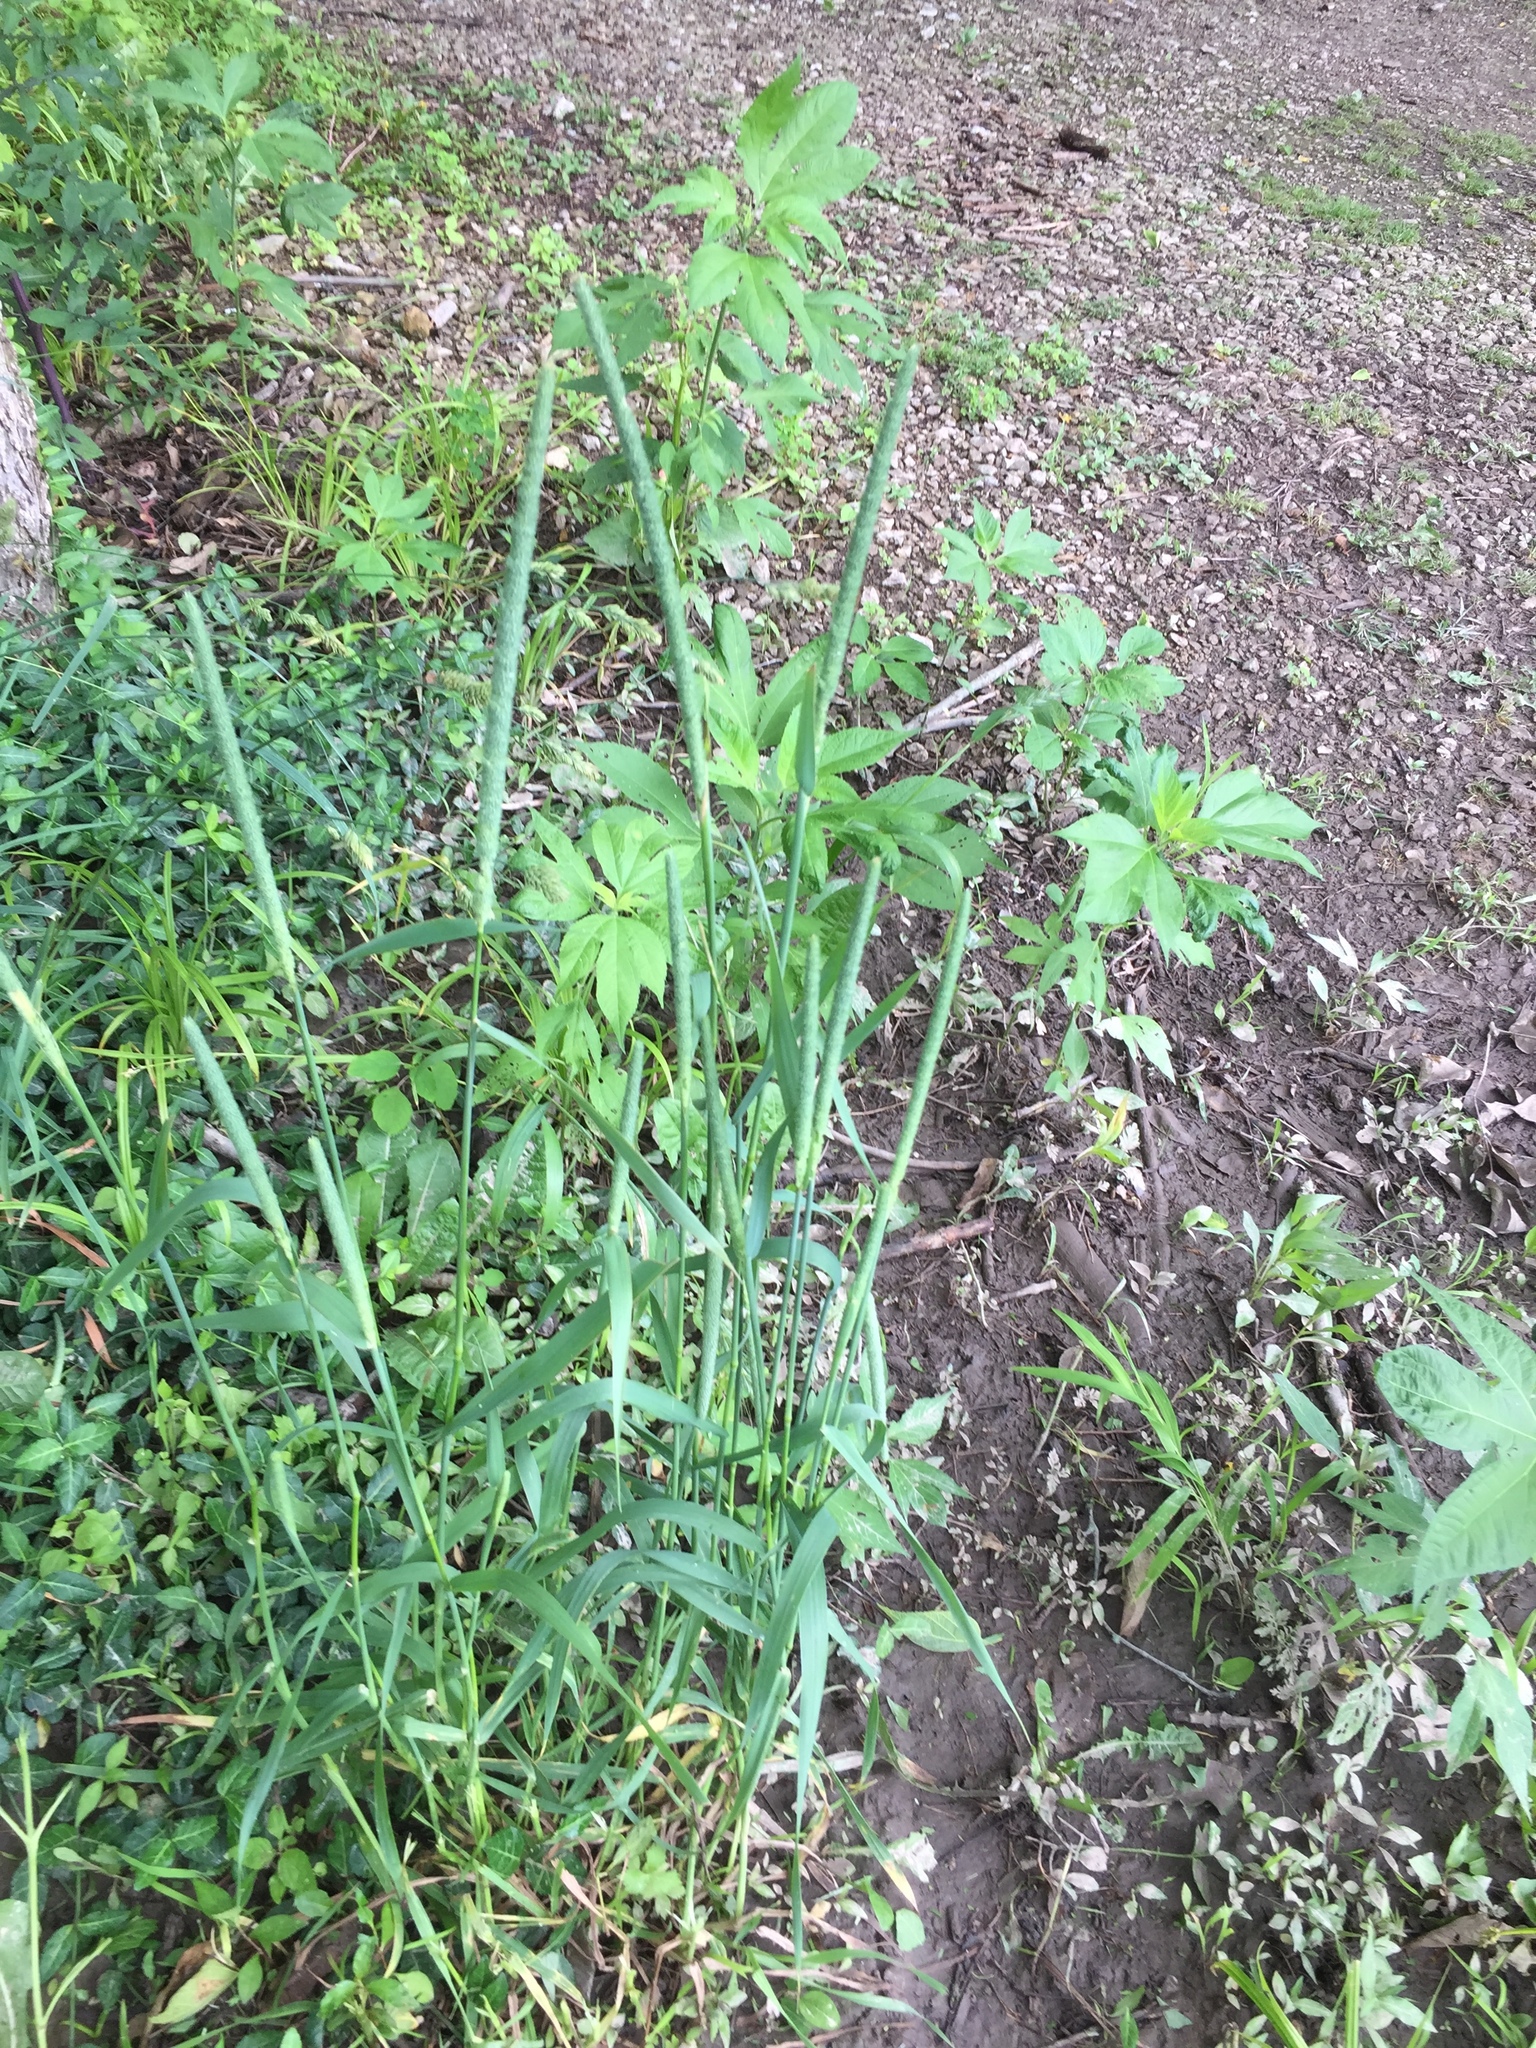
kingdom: Plantae
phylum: Tracheophyta
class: Liliopsida
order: Poales
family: Poaceae
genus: Phleum
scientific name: Phleum pratense
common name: Timothy grass
